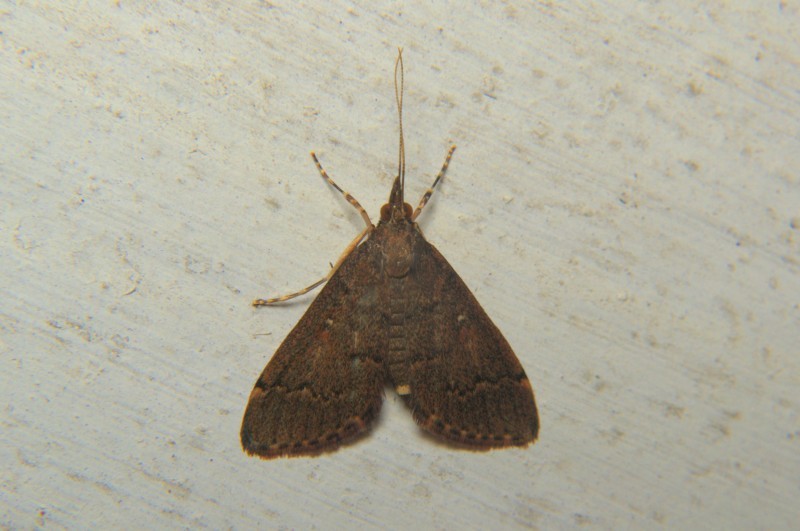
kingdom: Animalia
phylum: Arthropoda
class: Insecta
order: Lepidoptera
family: Crambidae
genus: Camptomastix
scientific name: Camptomastix hisbonalis
